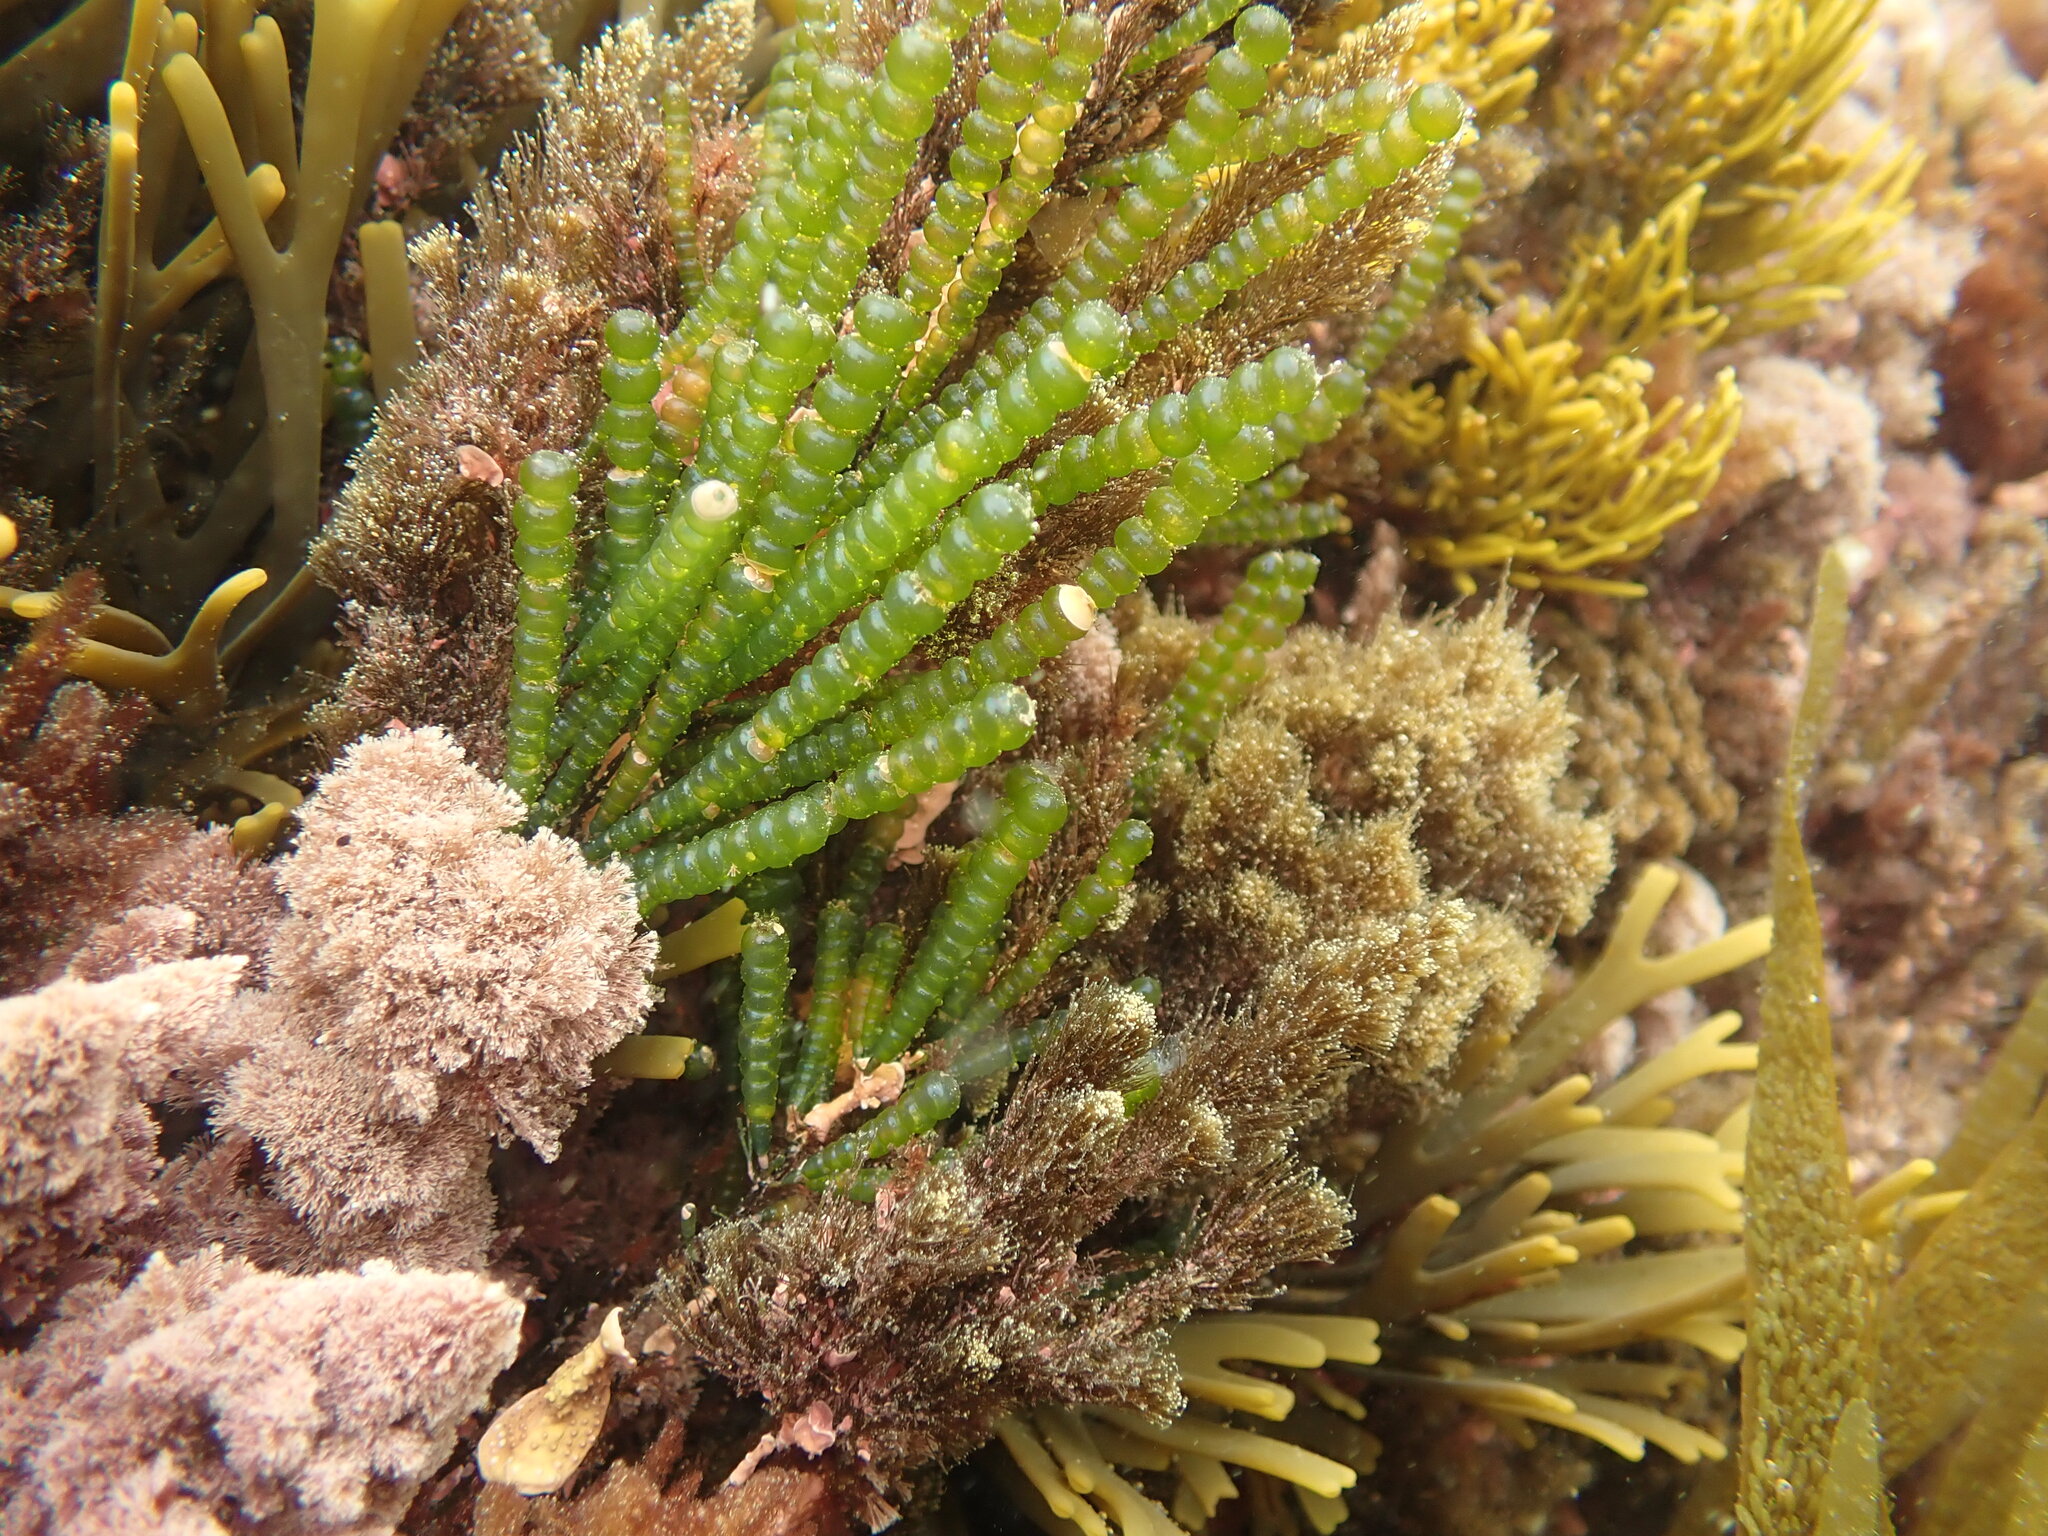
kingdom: Plantae
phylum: Chlorophyta
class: Ulvophyceae
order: Cladophorales
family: Cladophoraceae
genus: Chaetomorpha
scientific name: Chaetomorpha coliformis
